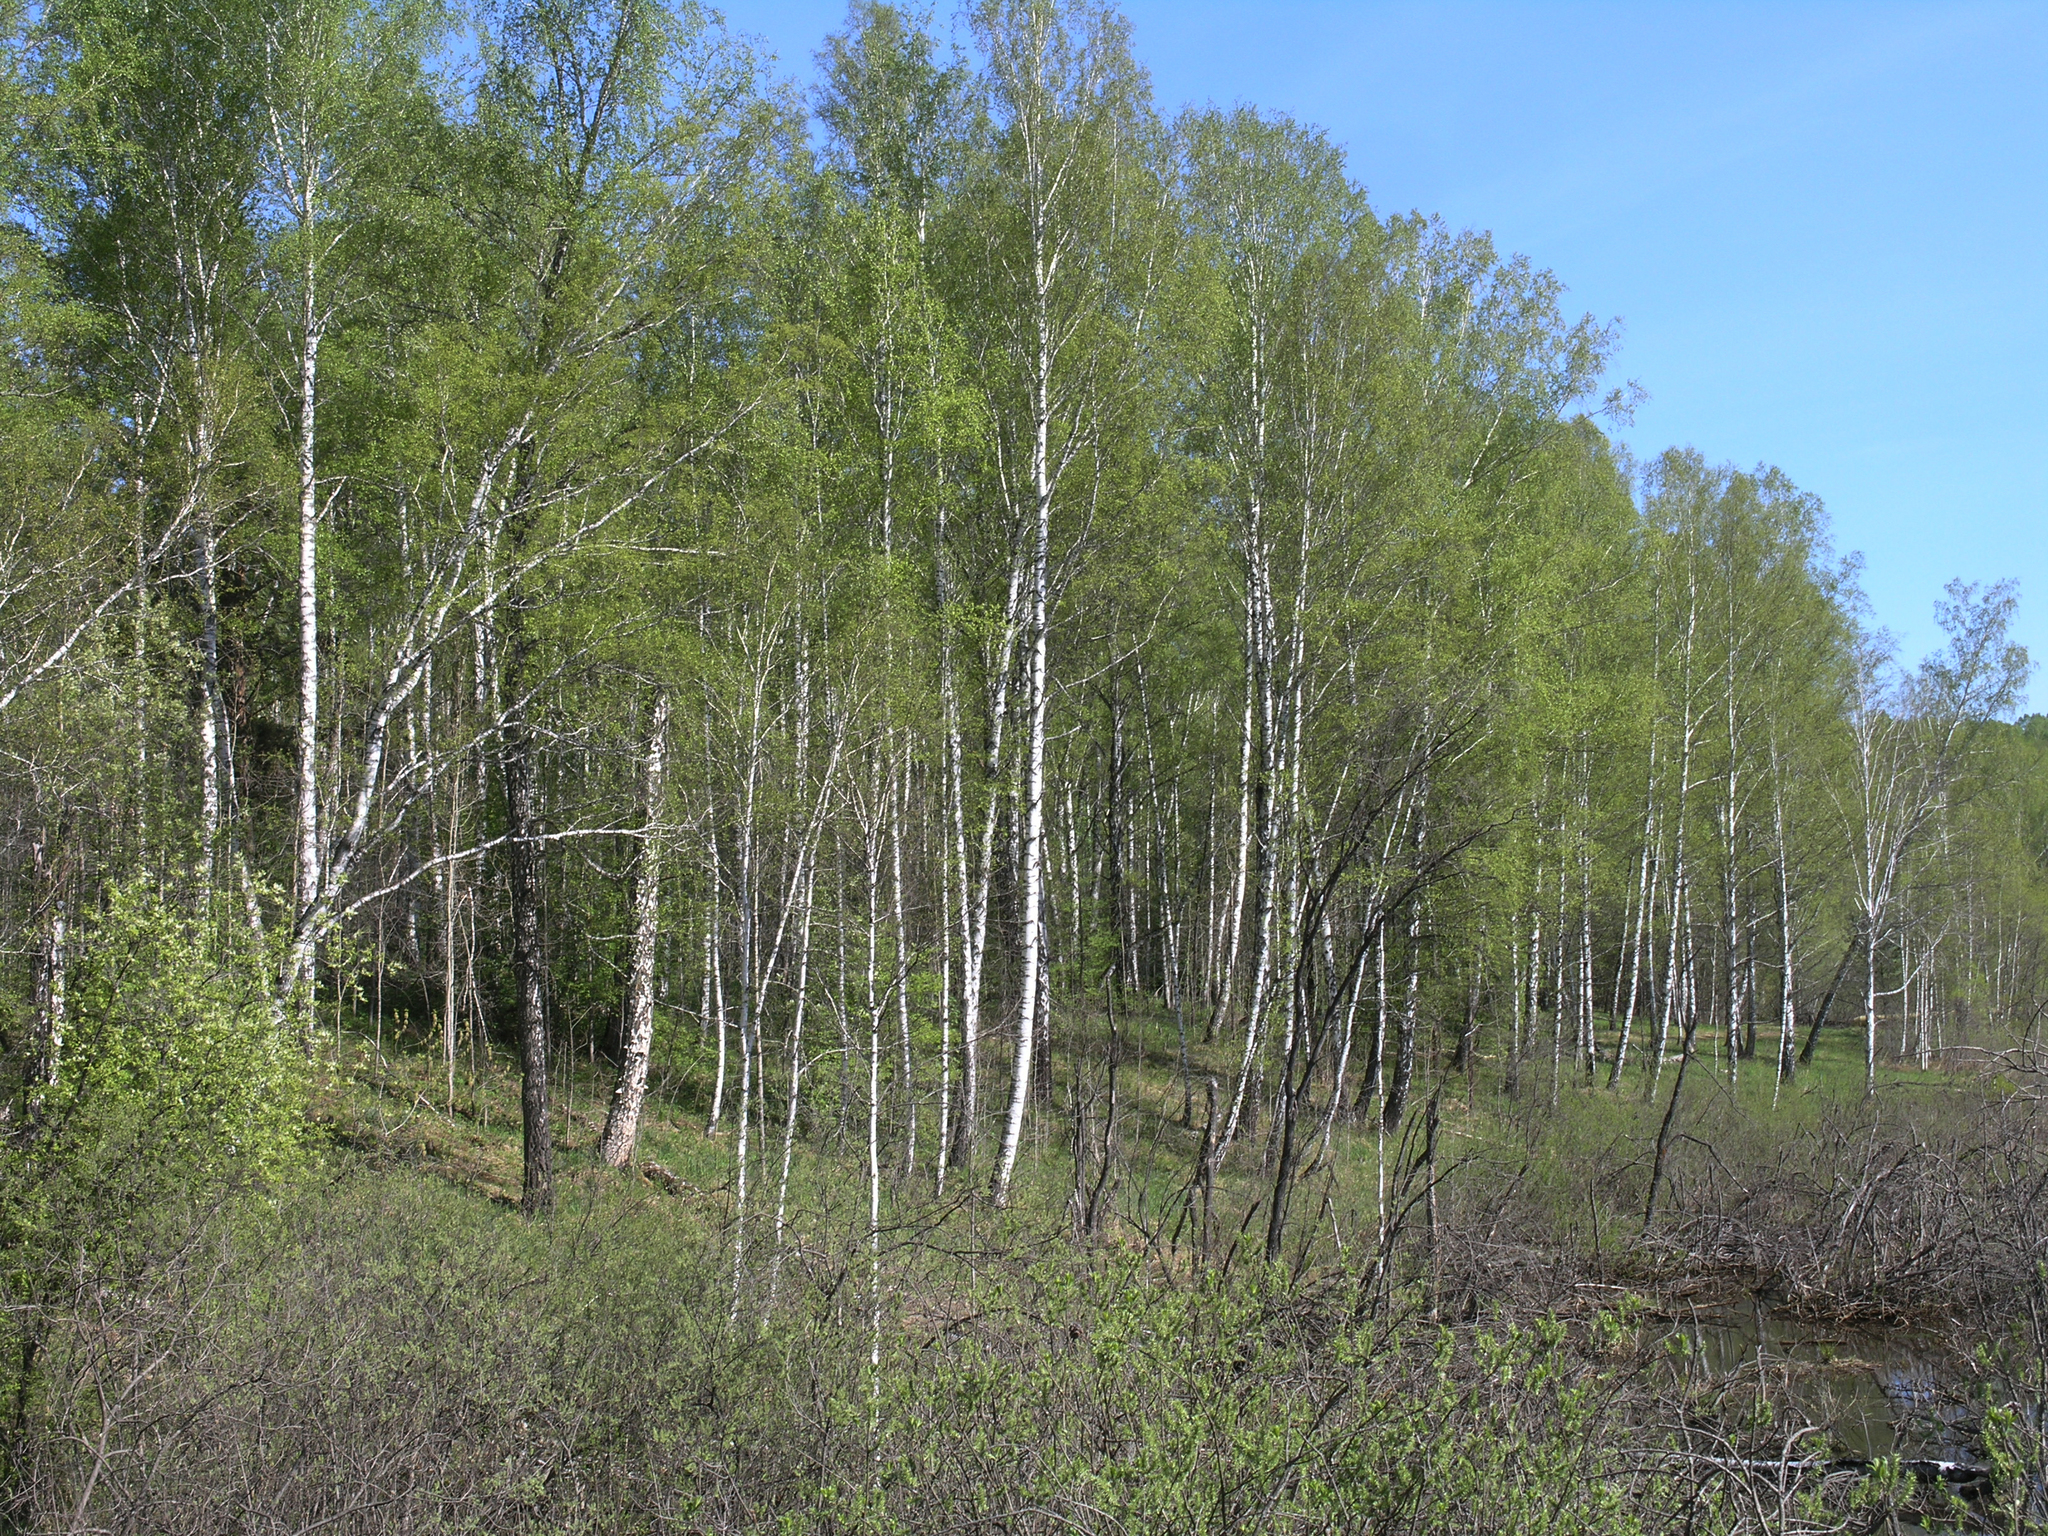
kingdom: Plantae
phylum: Tracheophyta
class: Magnoliopsida
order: Fagales
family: Betulaceae
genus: Betula
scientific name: Betula pendula
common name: Silver birch
